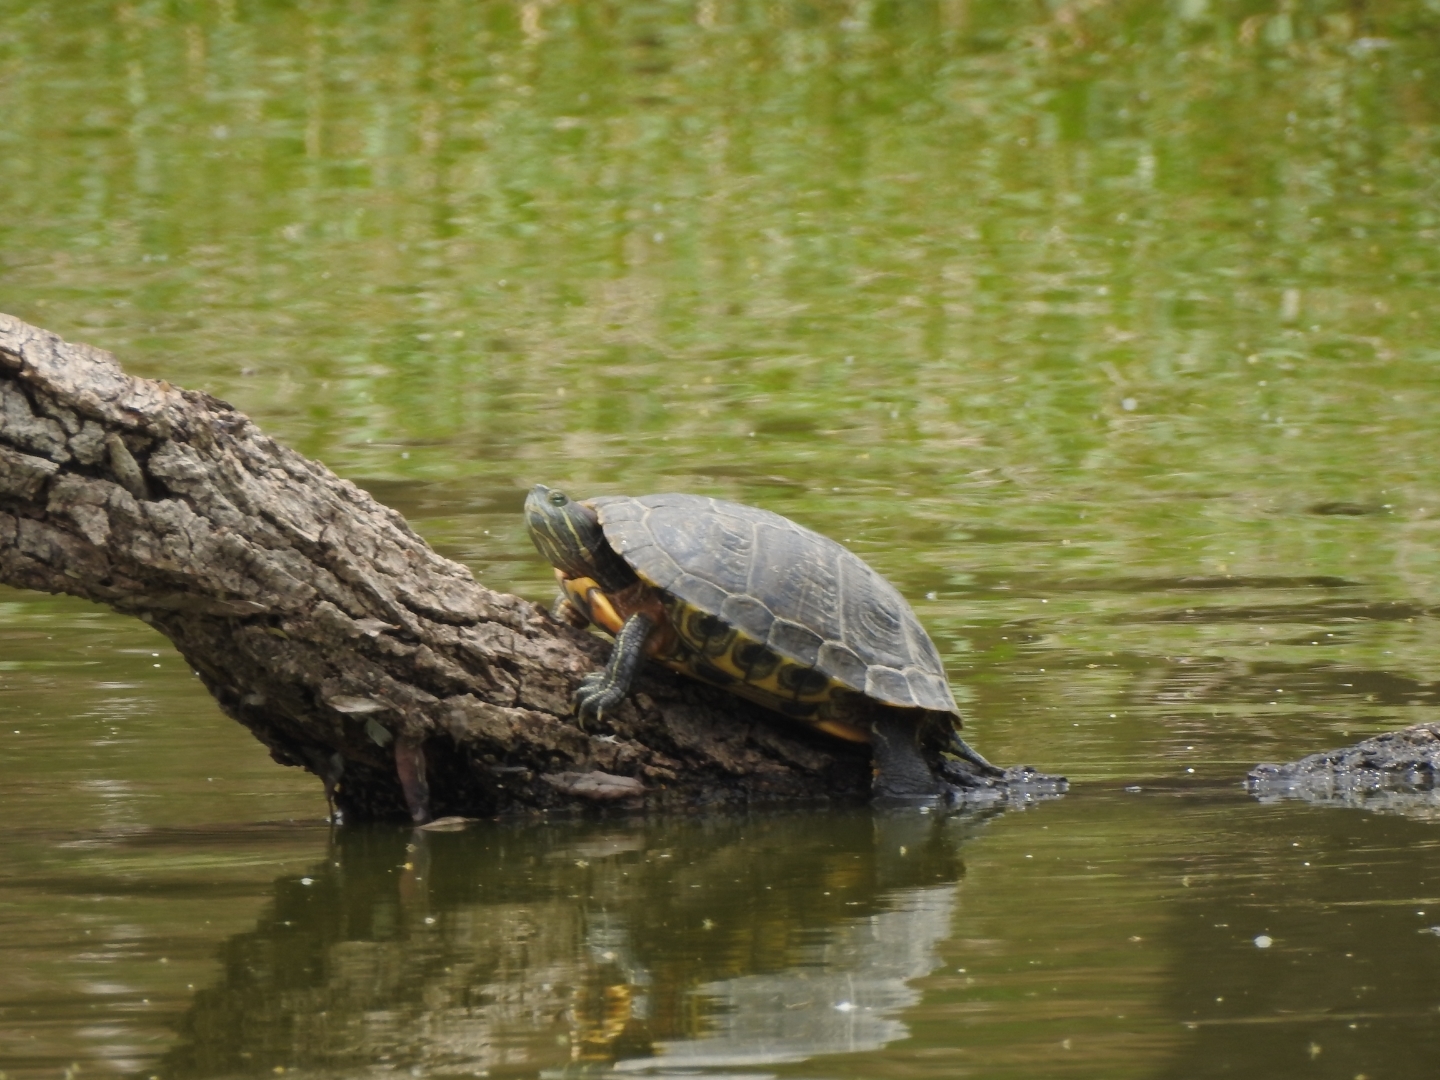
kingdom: Animalia
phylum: Chordata
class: Testudines
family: Emydidae
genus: Trachemys
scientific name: Trachemys scripta
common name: Slider
